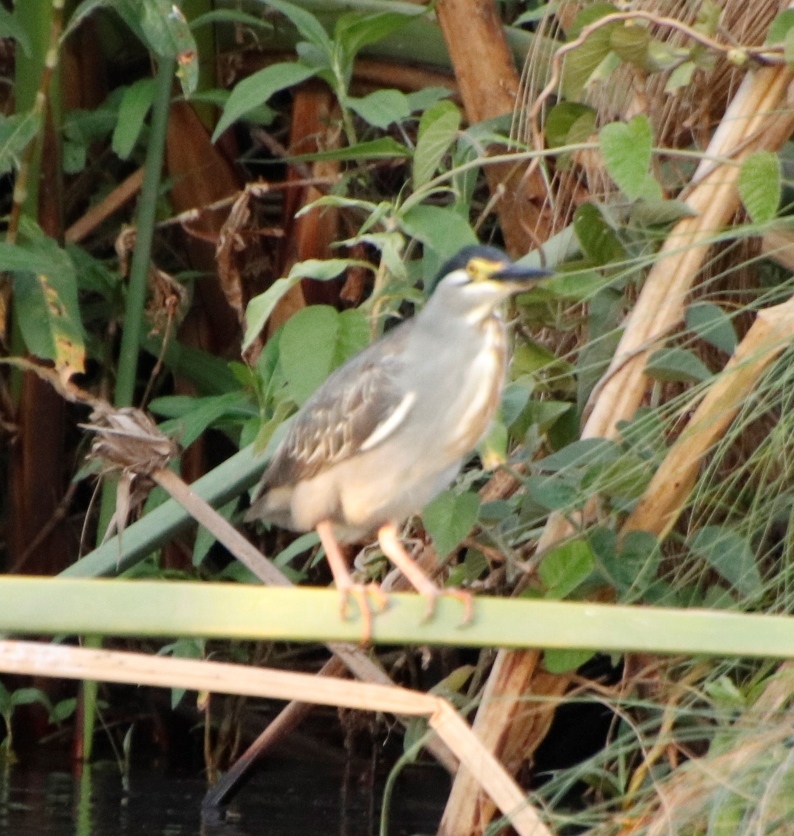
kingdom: Animalia
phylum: Chordata
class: Aves
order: Pelecaniformes
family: Ardeidae
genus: Butorides
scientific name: Butorides striata
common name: Striated heron
